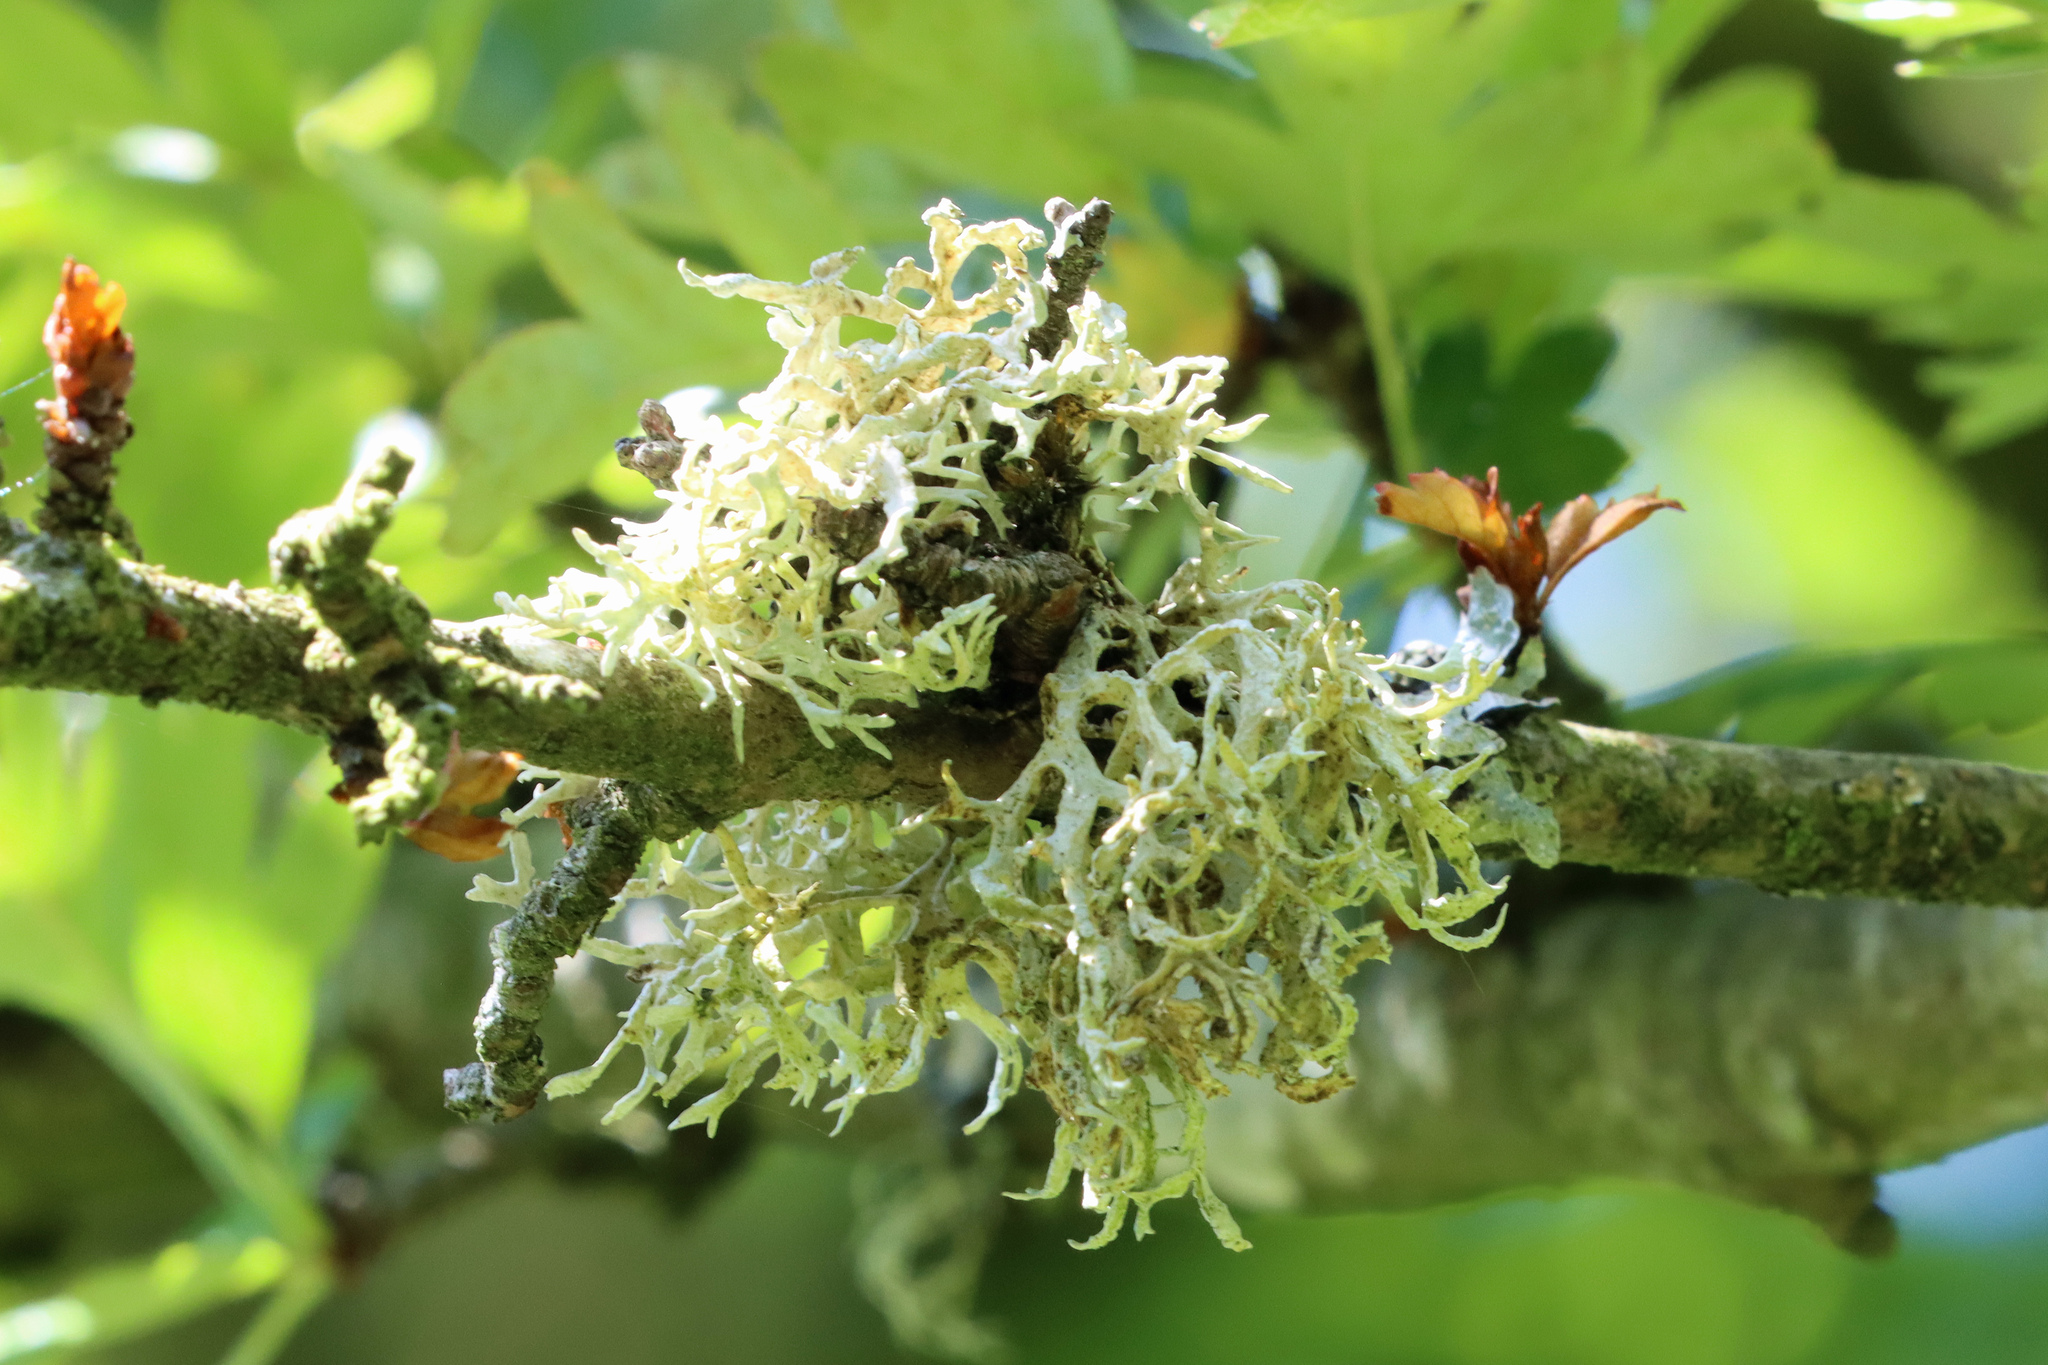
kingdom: Fungi
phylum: Ascomycota
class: Lecanoromycetes
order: Lecanorales
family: Parmeliaceae
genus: Evernia
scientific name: Evernia prunastri
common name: Oak moss
